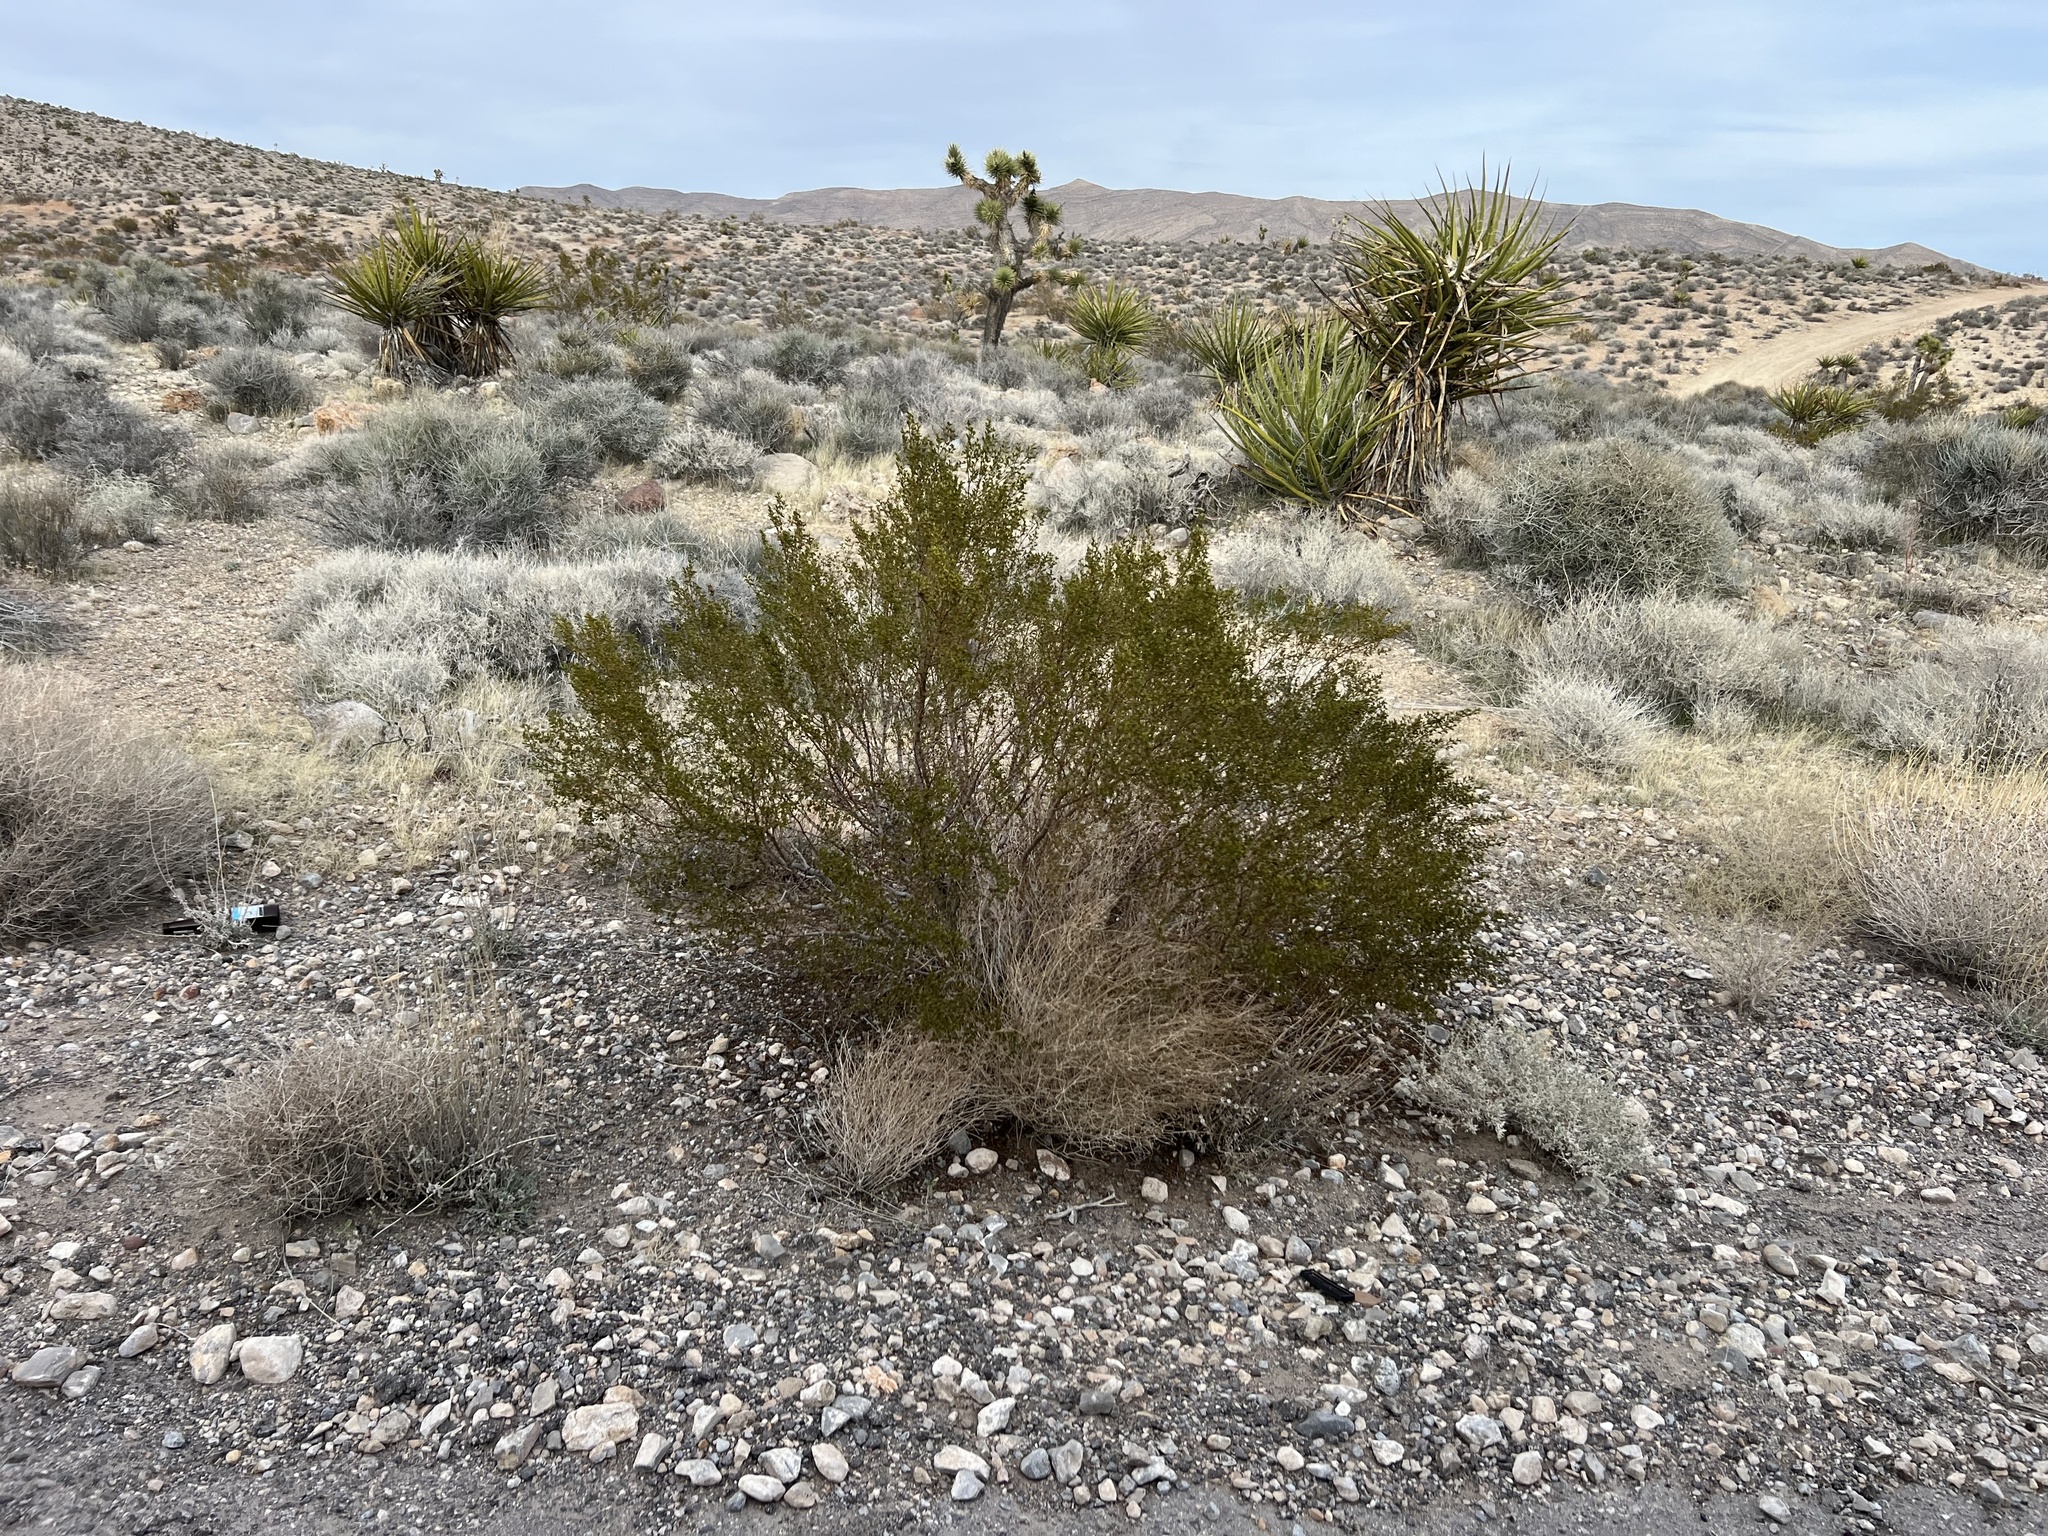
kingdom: Plantae
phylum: Tracheophyta
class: Magnoliopsida
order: Zygophyllales
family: Zygophyllaceae
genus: Larrea
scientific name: Larrea tridentata
